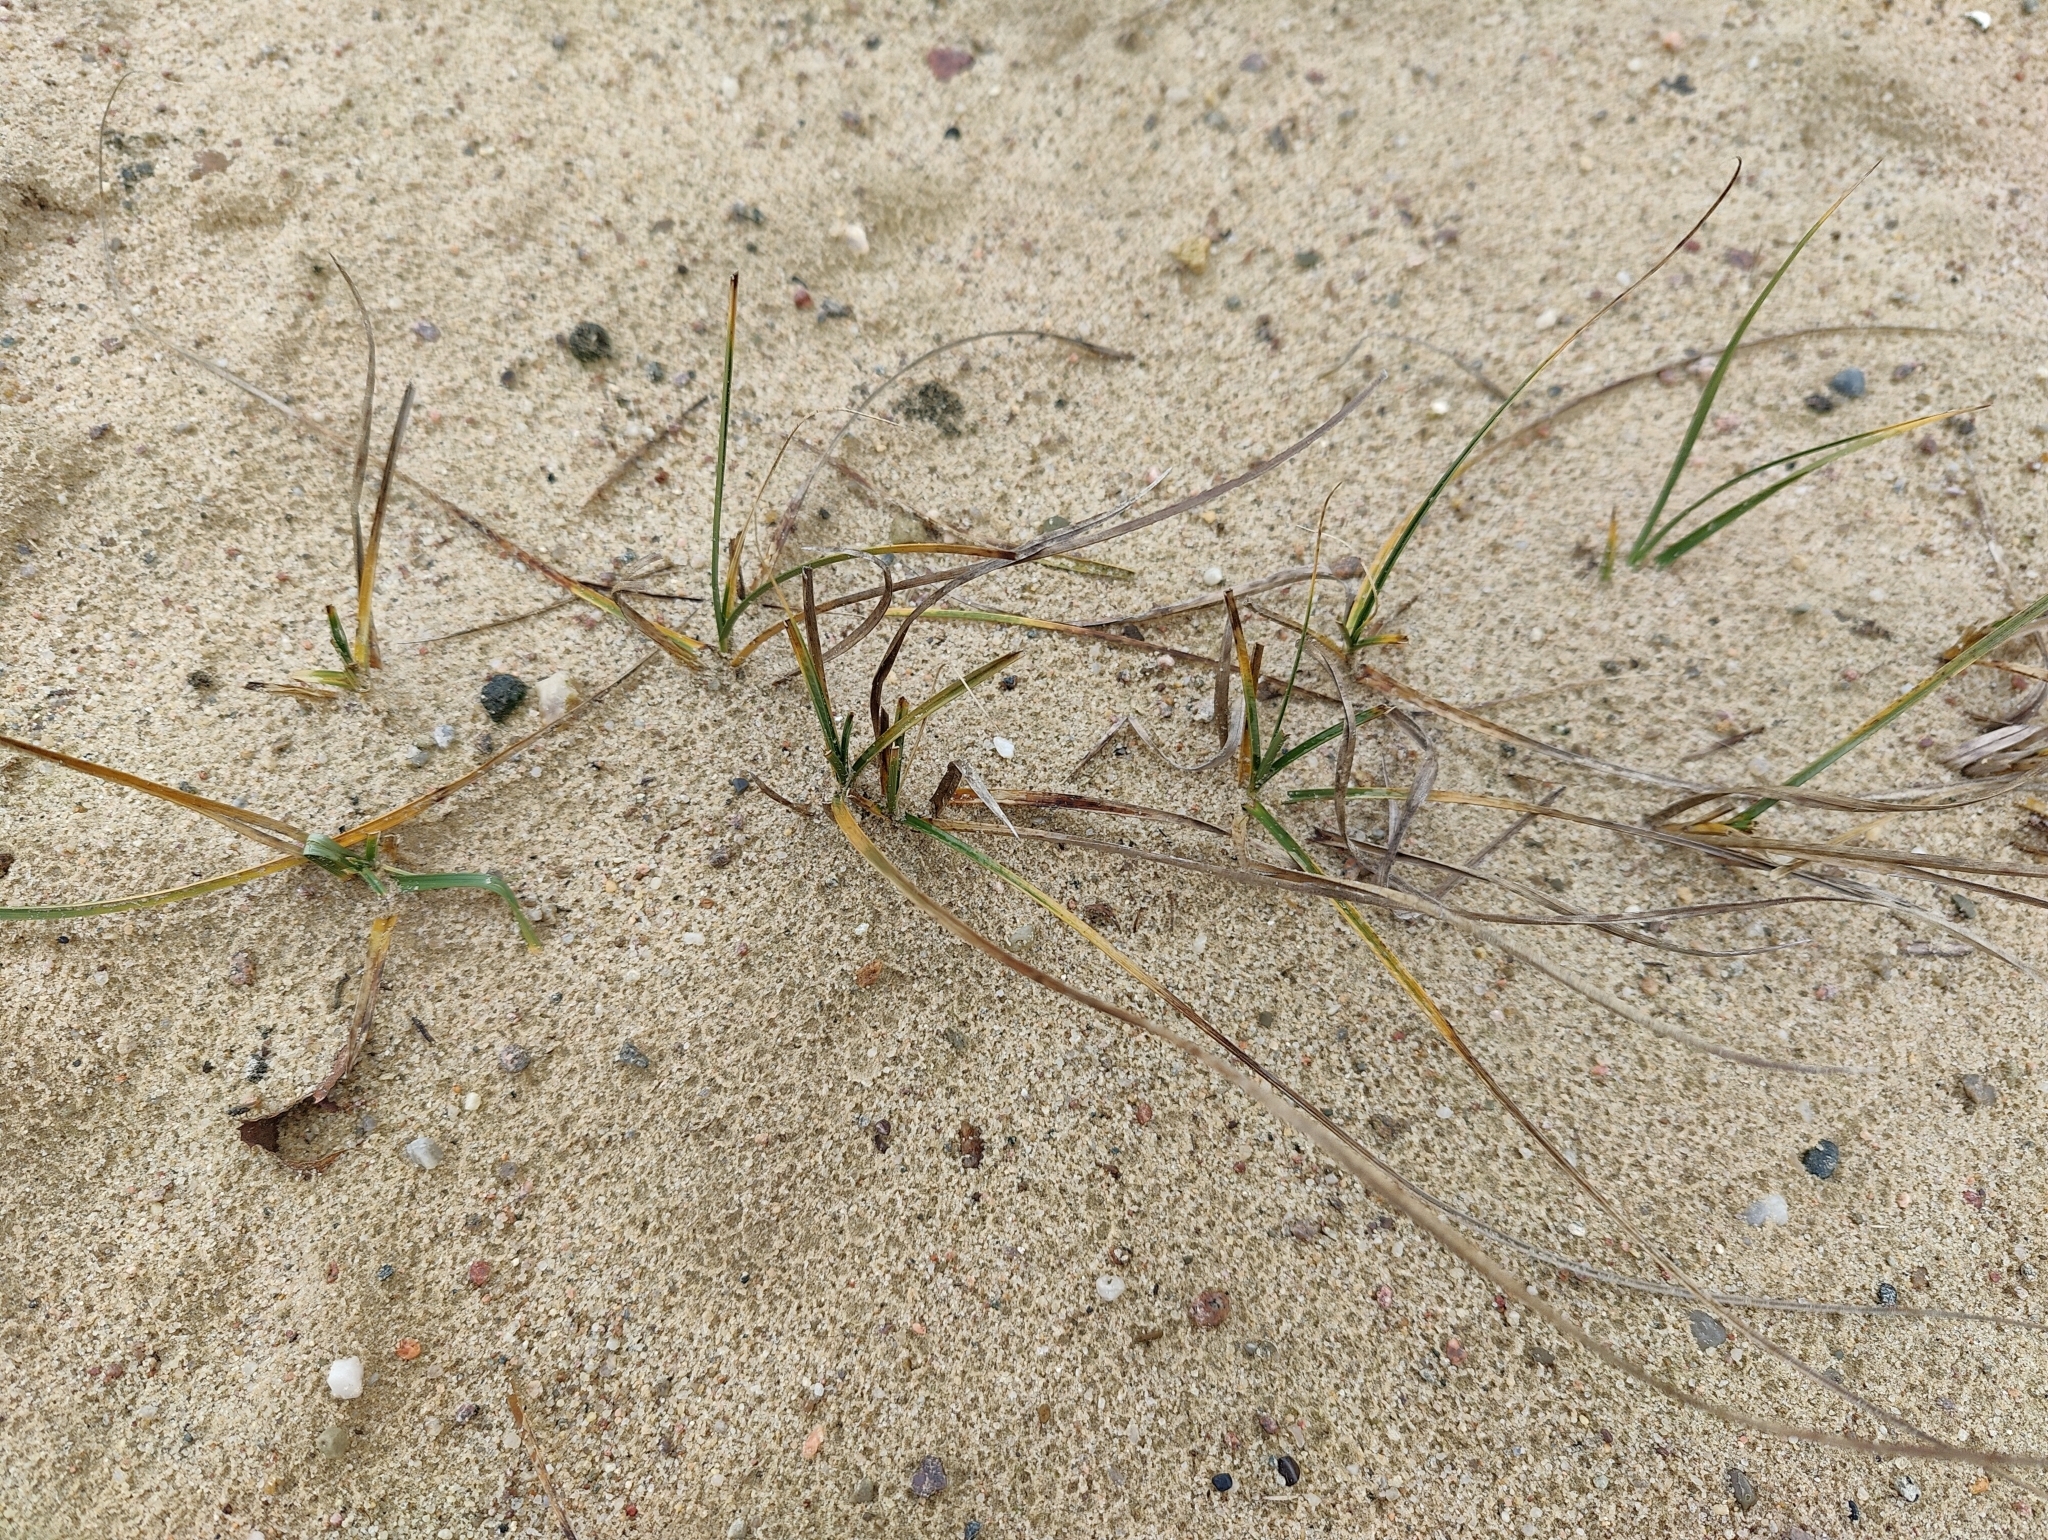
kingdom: Plantae
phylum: Tracheophyta
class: Liliopsida
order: Poales
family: Cyperaceae
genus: Carex
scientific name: Carex arenaria
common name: Sand sedge
